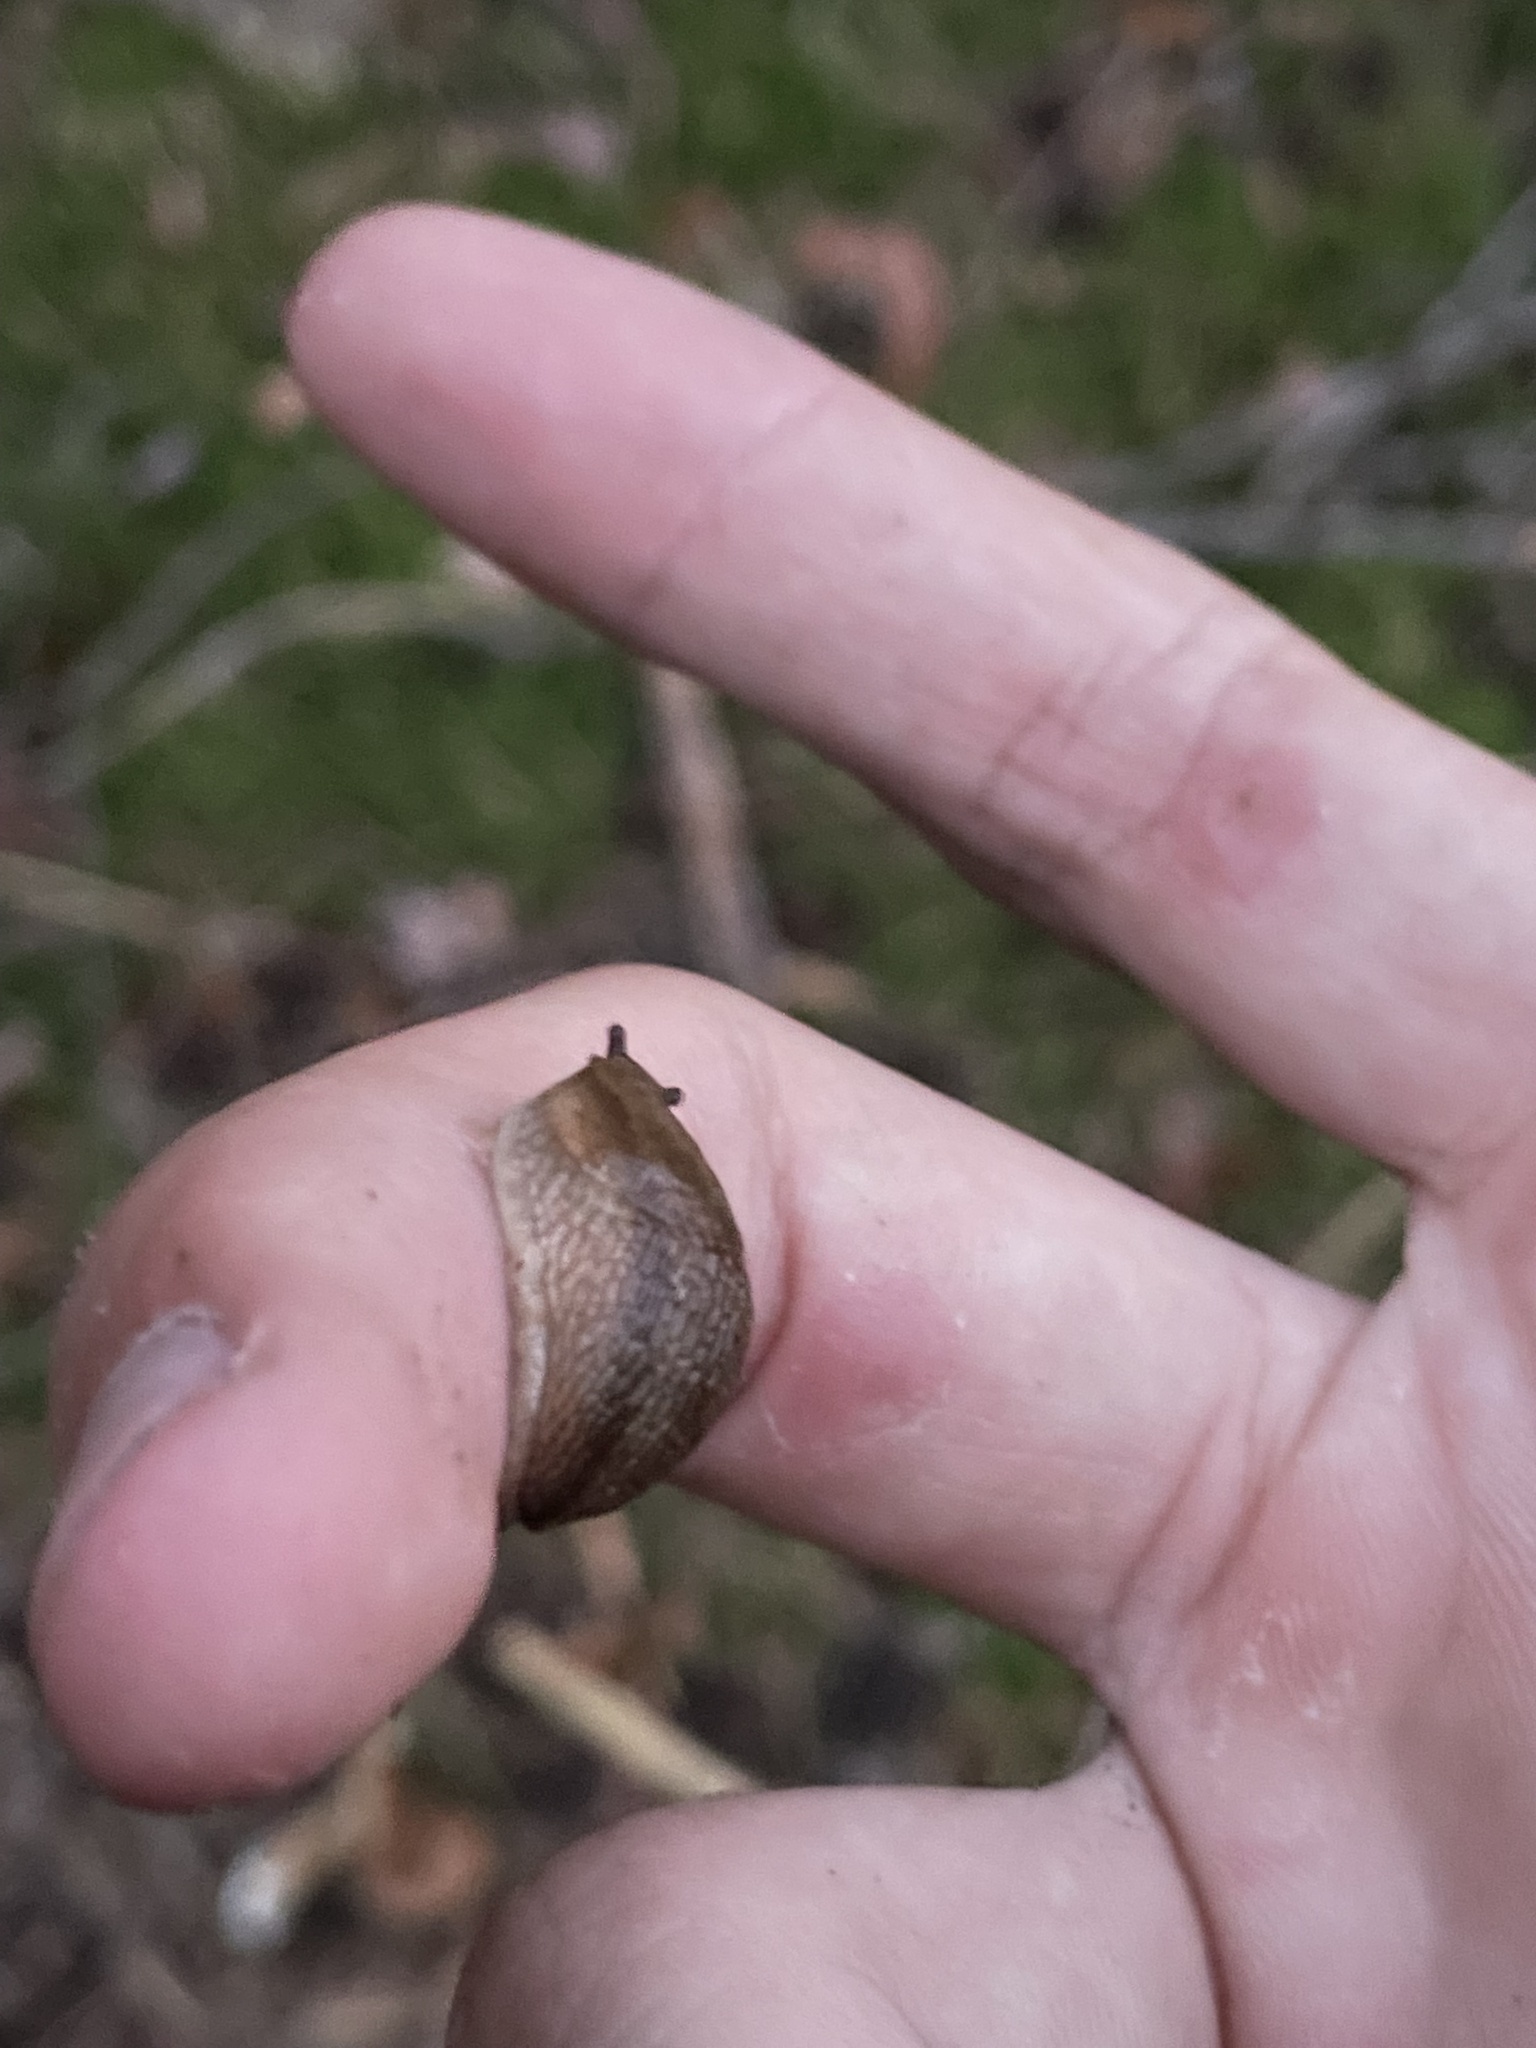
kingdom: Animalia
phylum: Mollusca
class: Gastropoda
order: Stylommatophora
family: Arionidae
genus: Arion
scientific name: Arion fuscus
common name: Northern dusky slug
